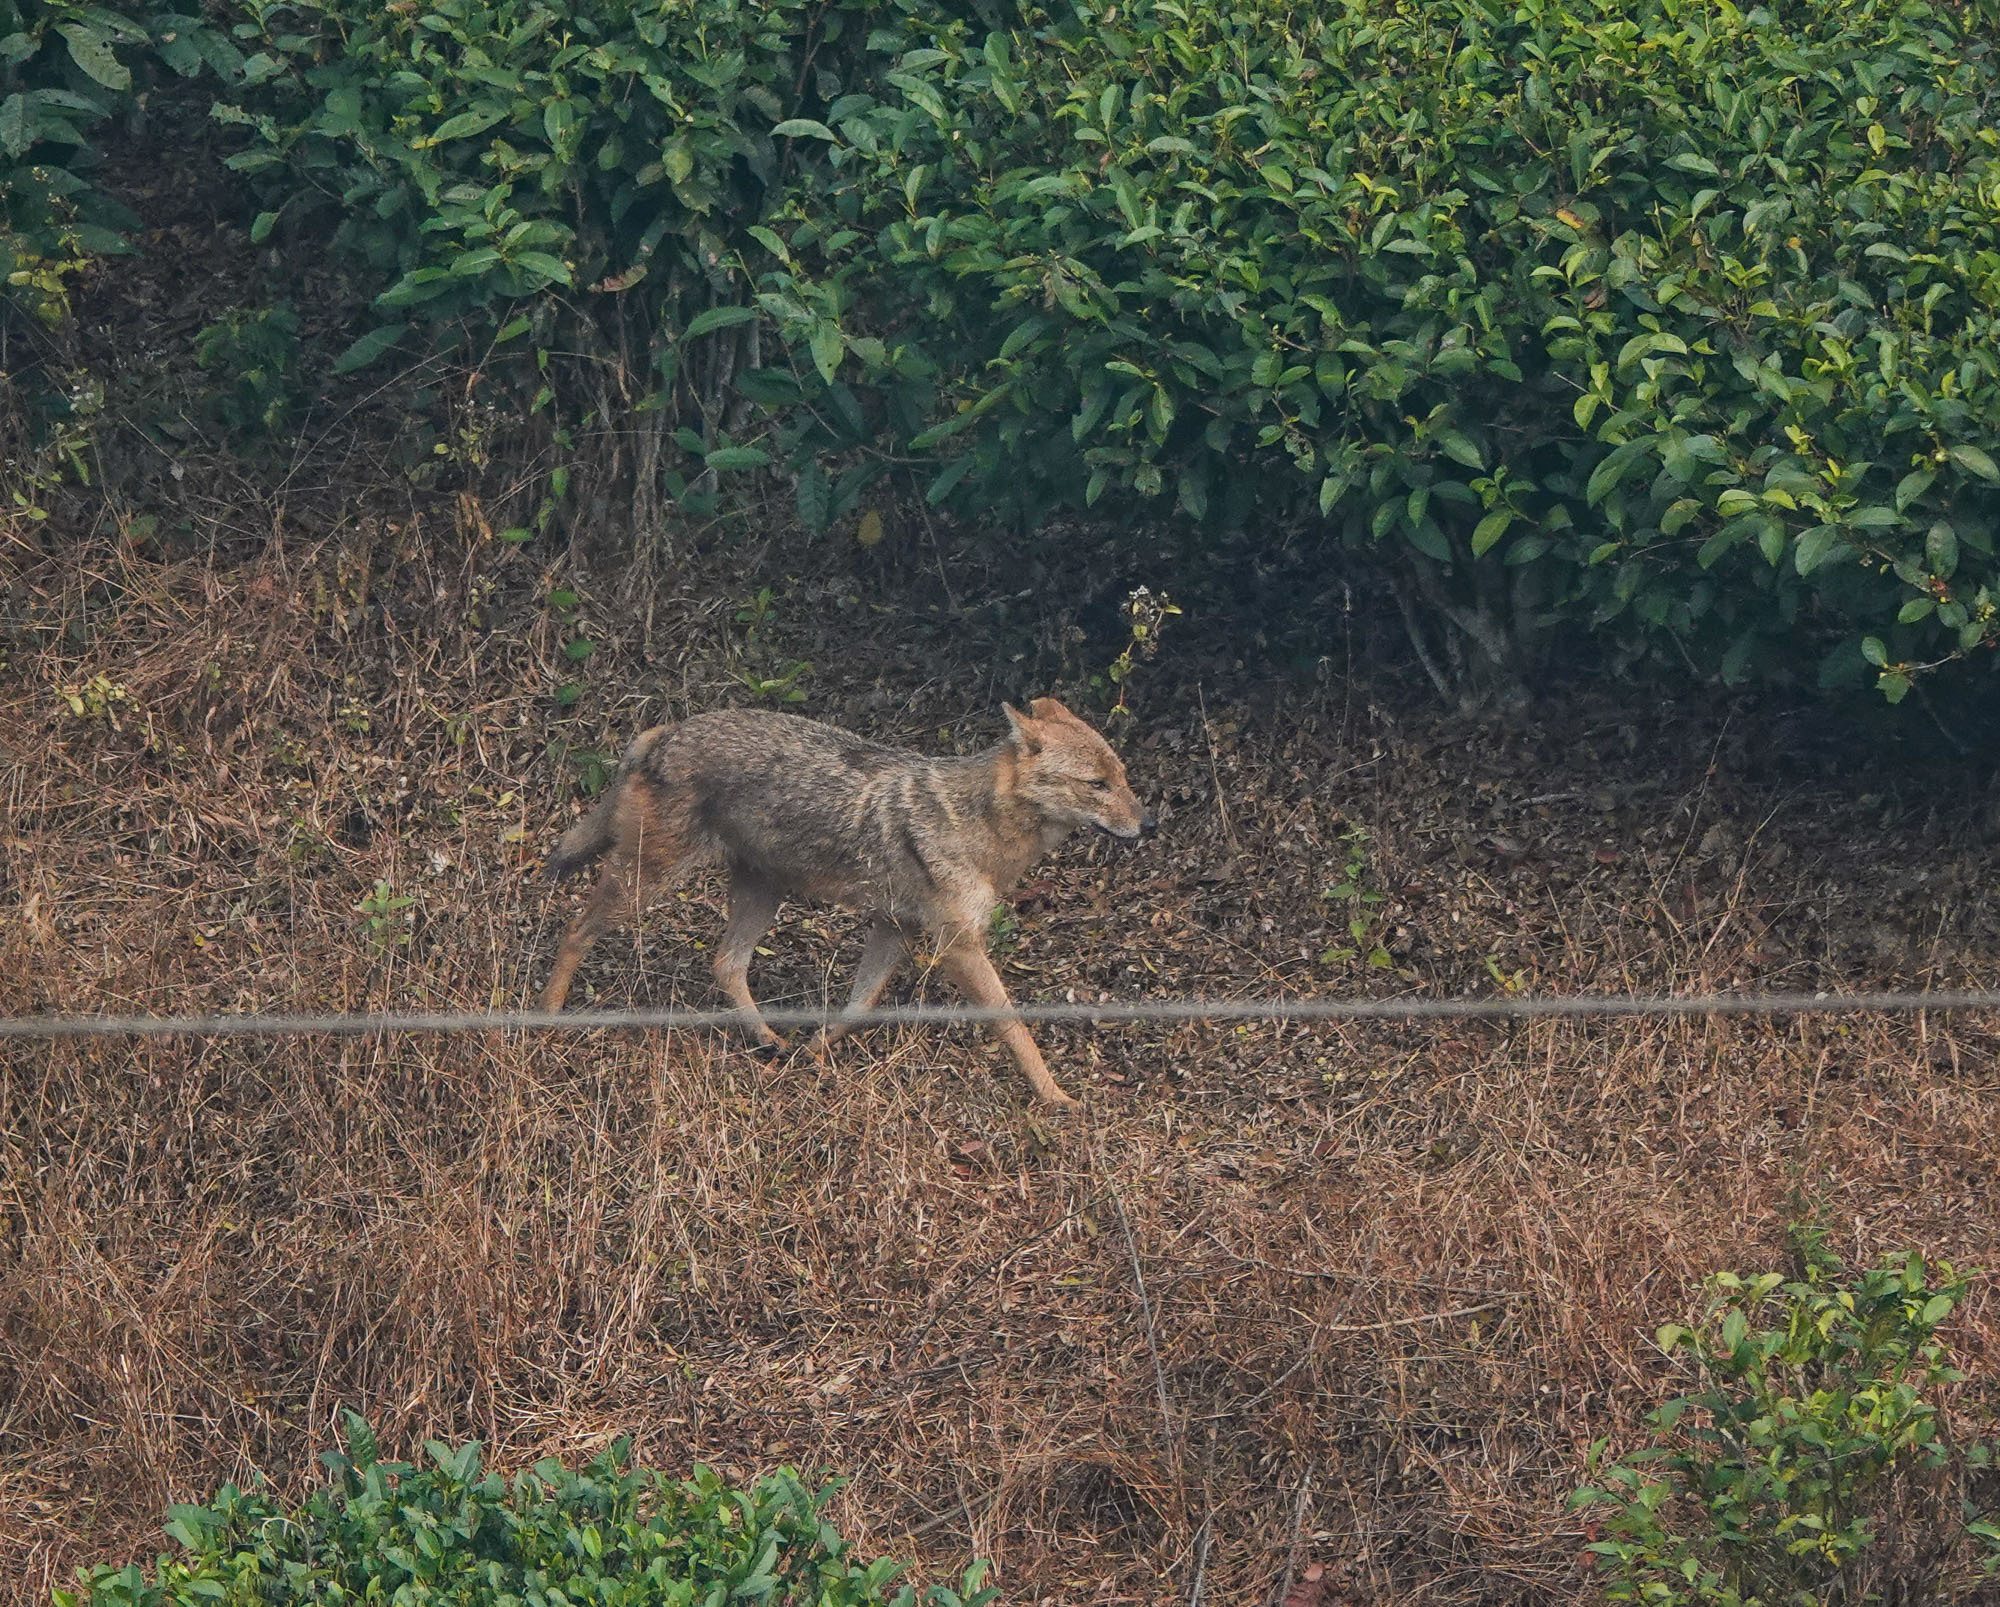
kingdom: Animalia
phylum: Chordata
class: Mammalia
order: Carnivora
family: Canidae
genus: Canis
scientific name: Canis aureus
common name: Golden jackal
